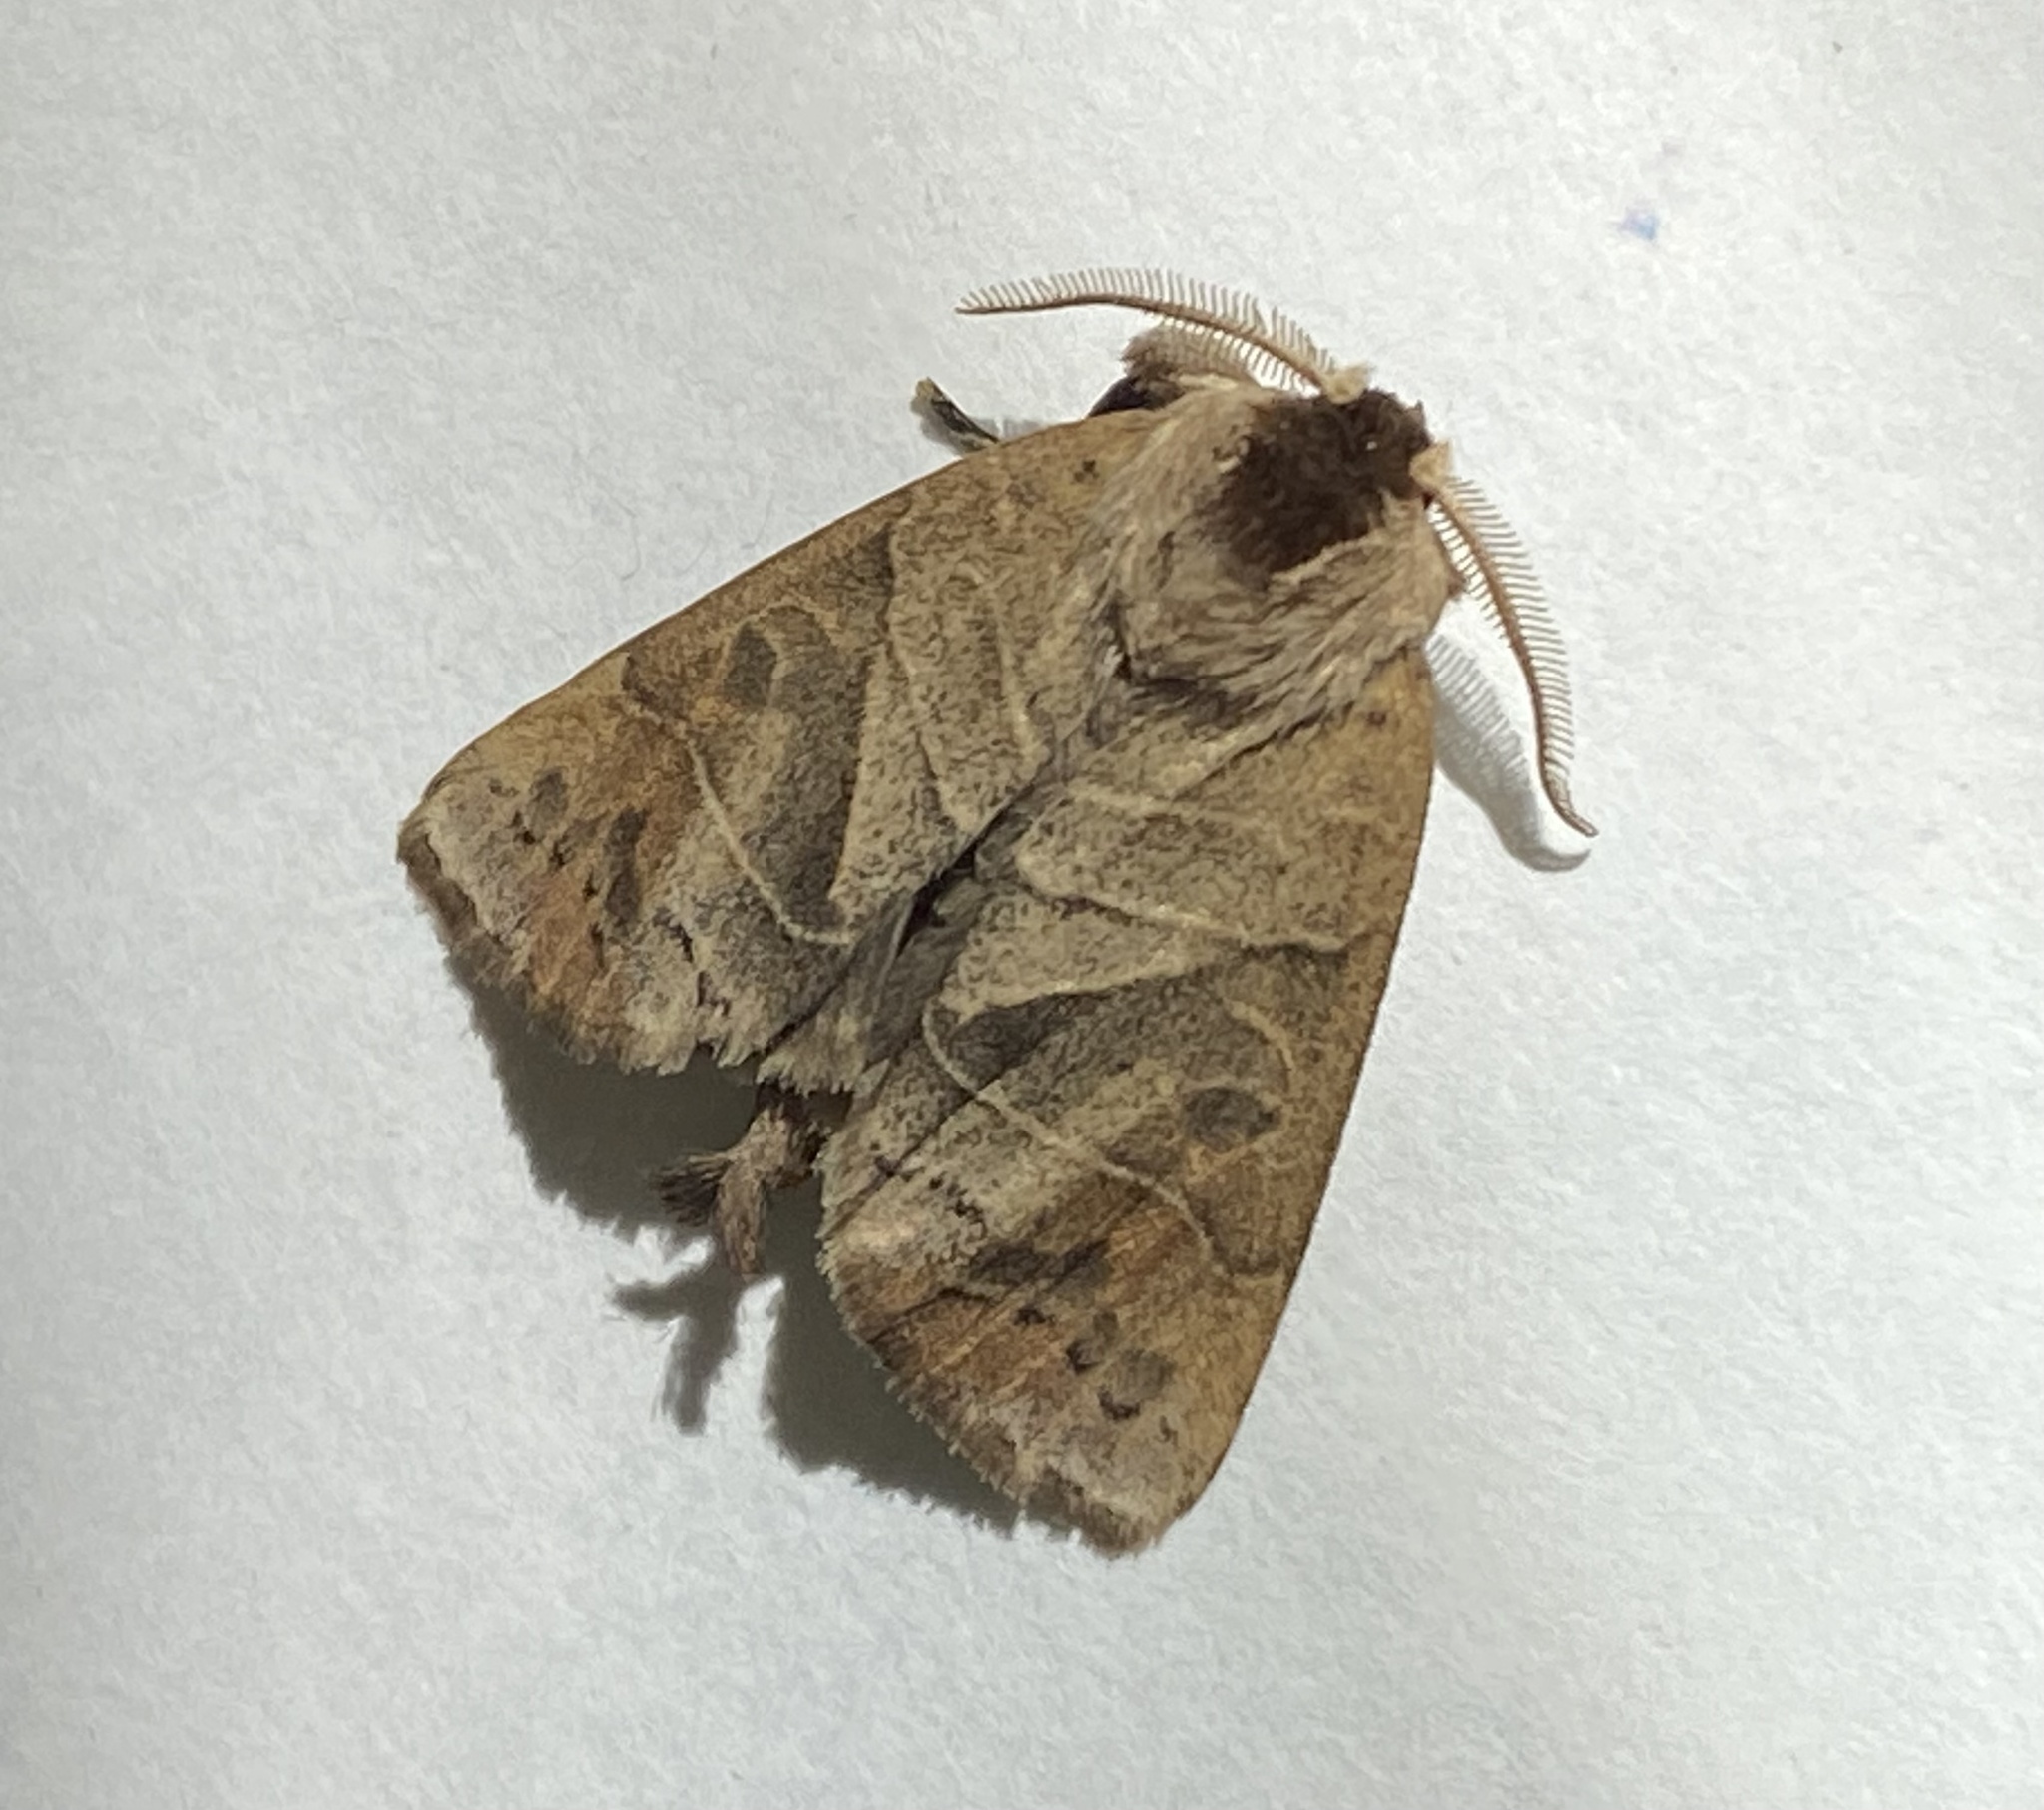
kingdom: Animalia
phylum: Arthropoda
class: Insecta
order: Lepidoptera
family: Notodontidae
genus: Clostera
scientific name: Clostera anastomosis
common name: Poplar tip moth
